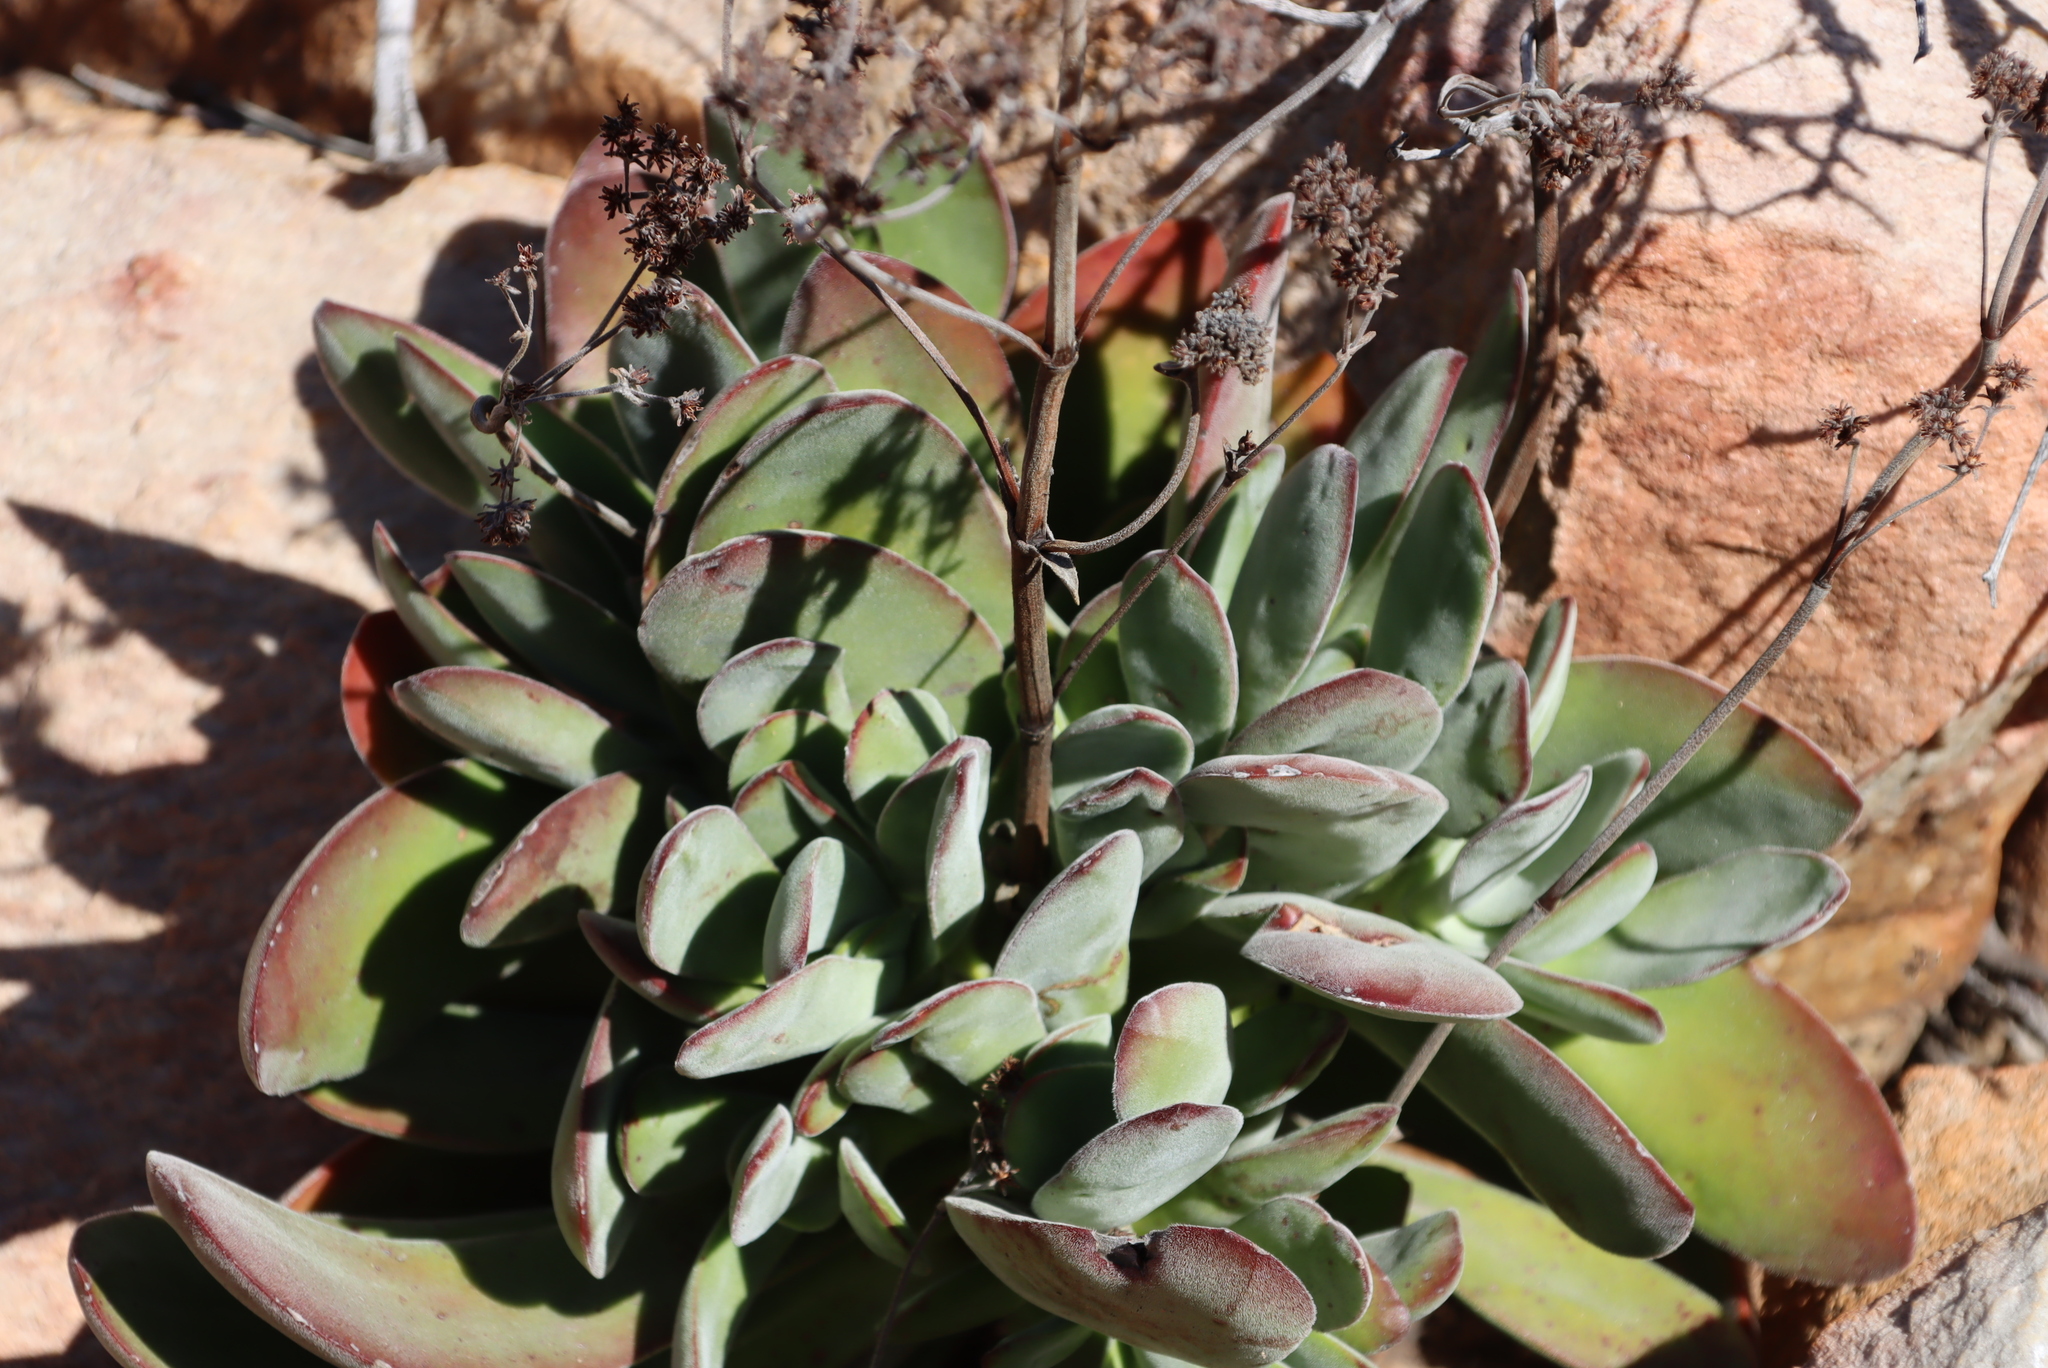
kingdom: Plantae
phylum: Tracheophyta
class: Magnoliopsida
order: Saxifragales
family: Crassulaceae
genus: Crassula
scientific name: Crassula cotyledonis
